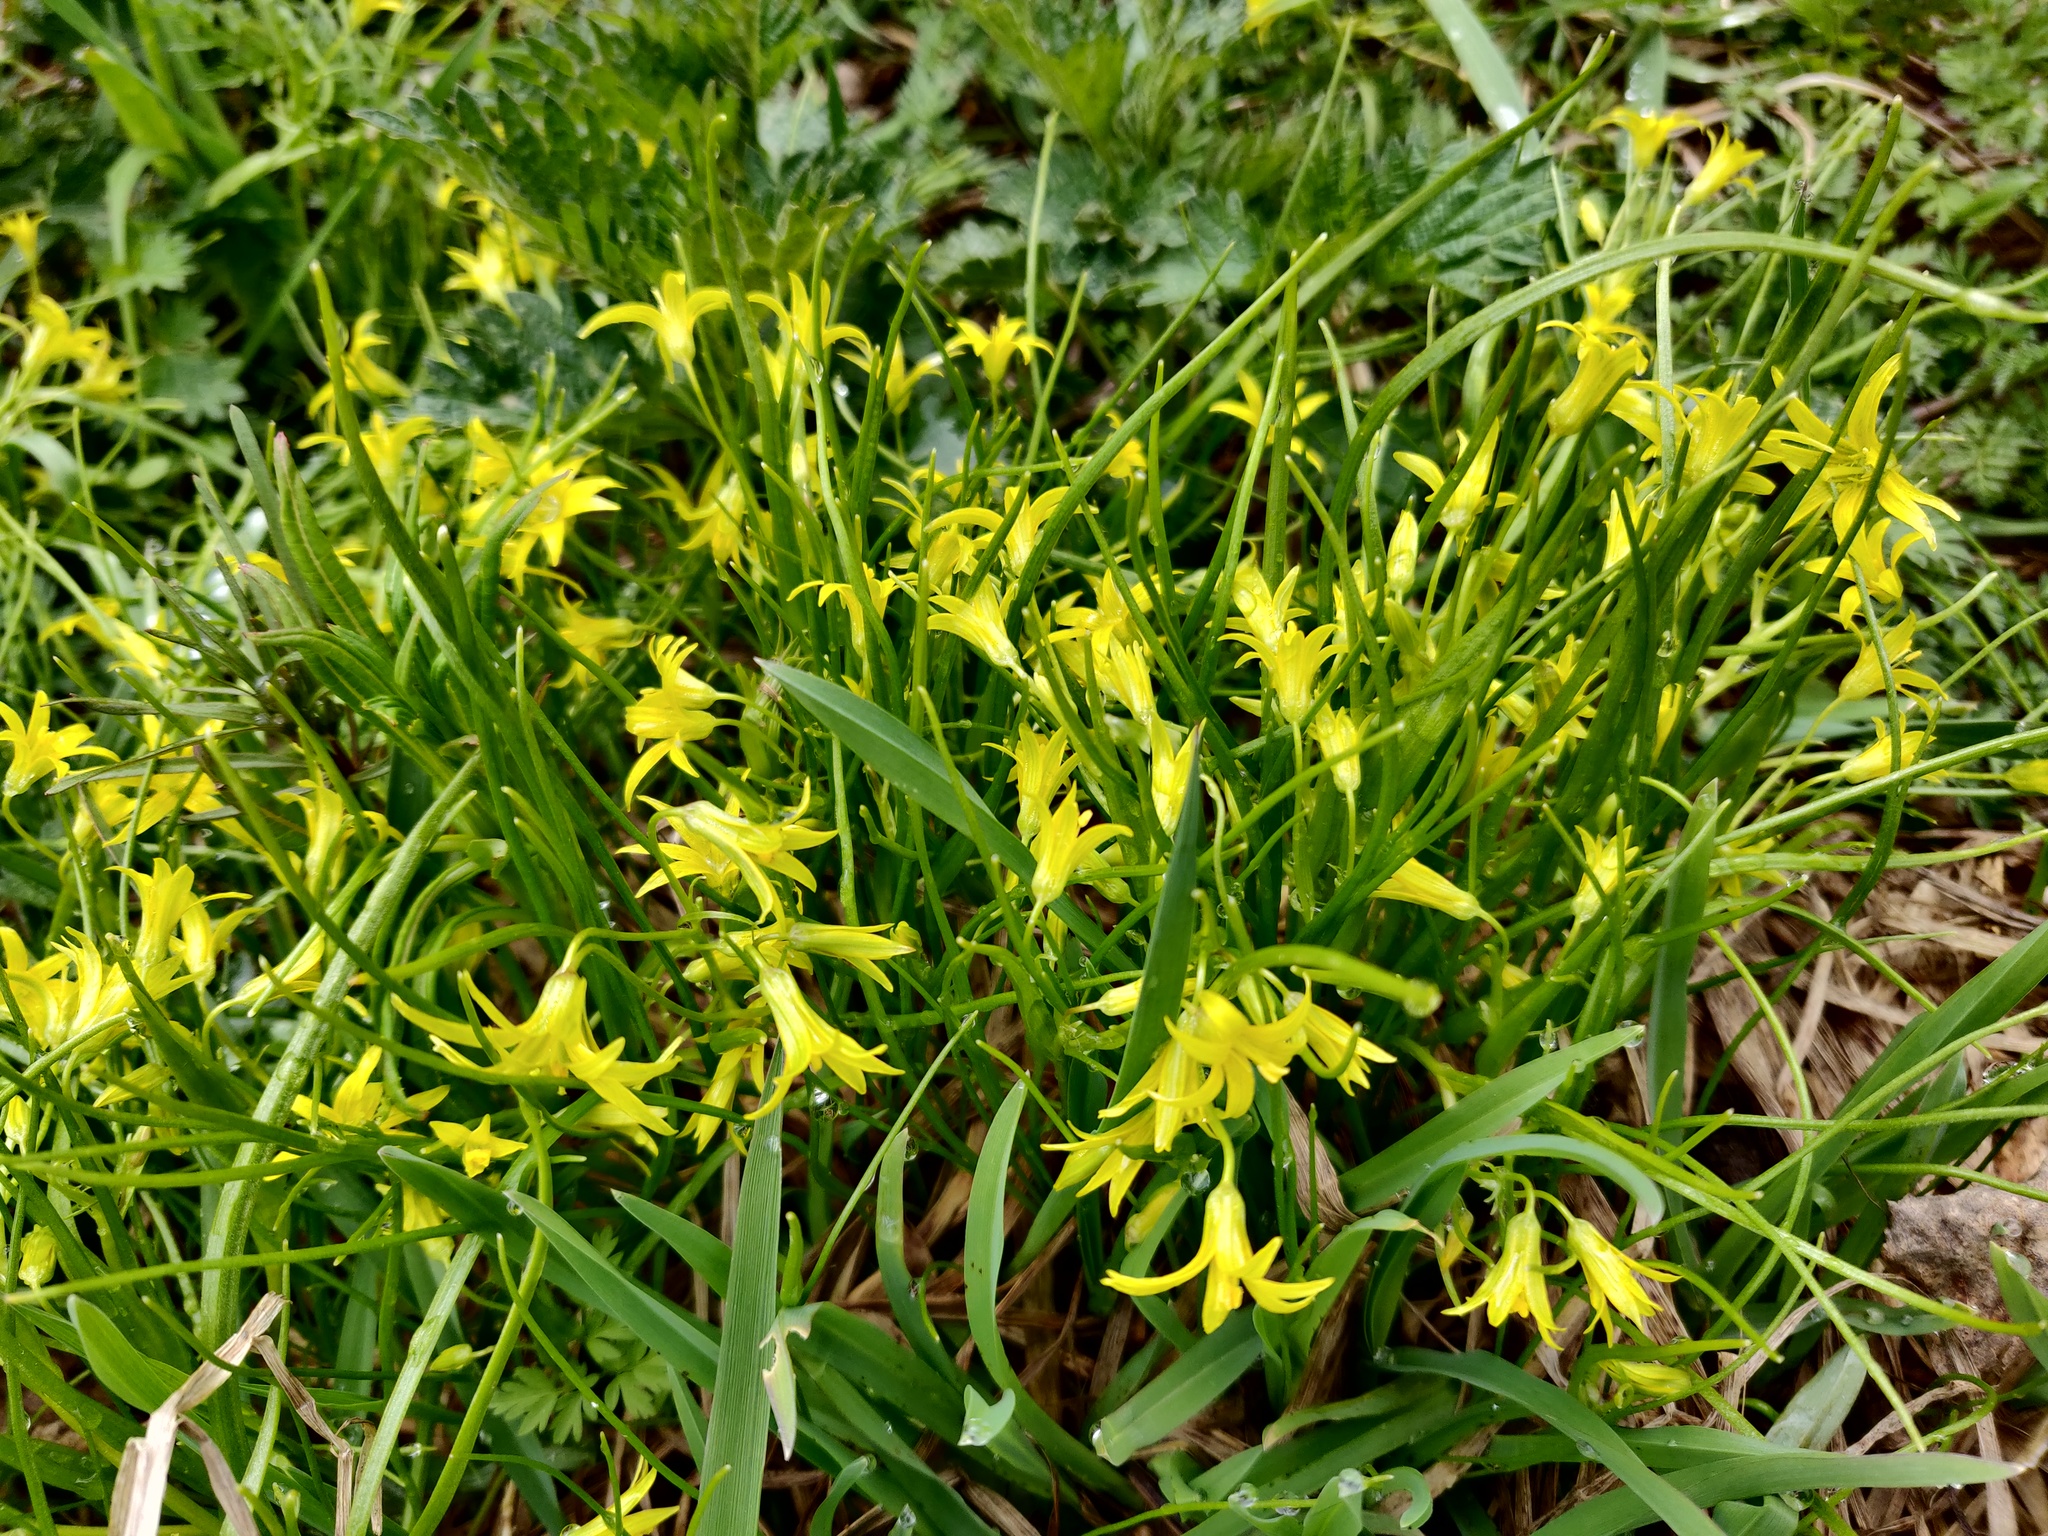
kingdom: Plantae
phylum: Tracheophyta
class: Liliopsida
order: Liliales
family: Liliaceae
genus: Gagea
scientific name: Gagea minima
